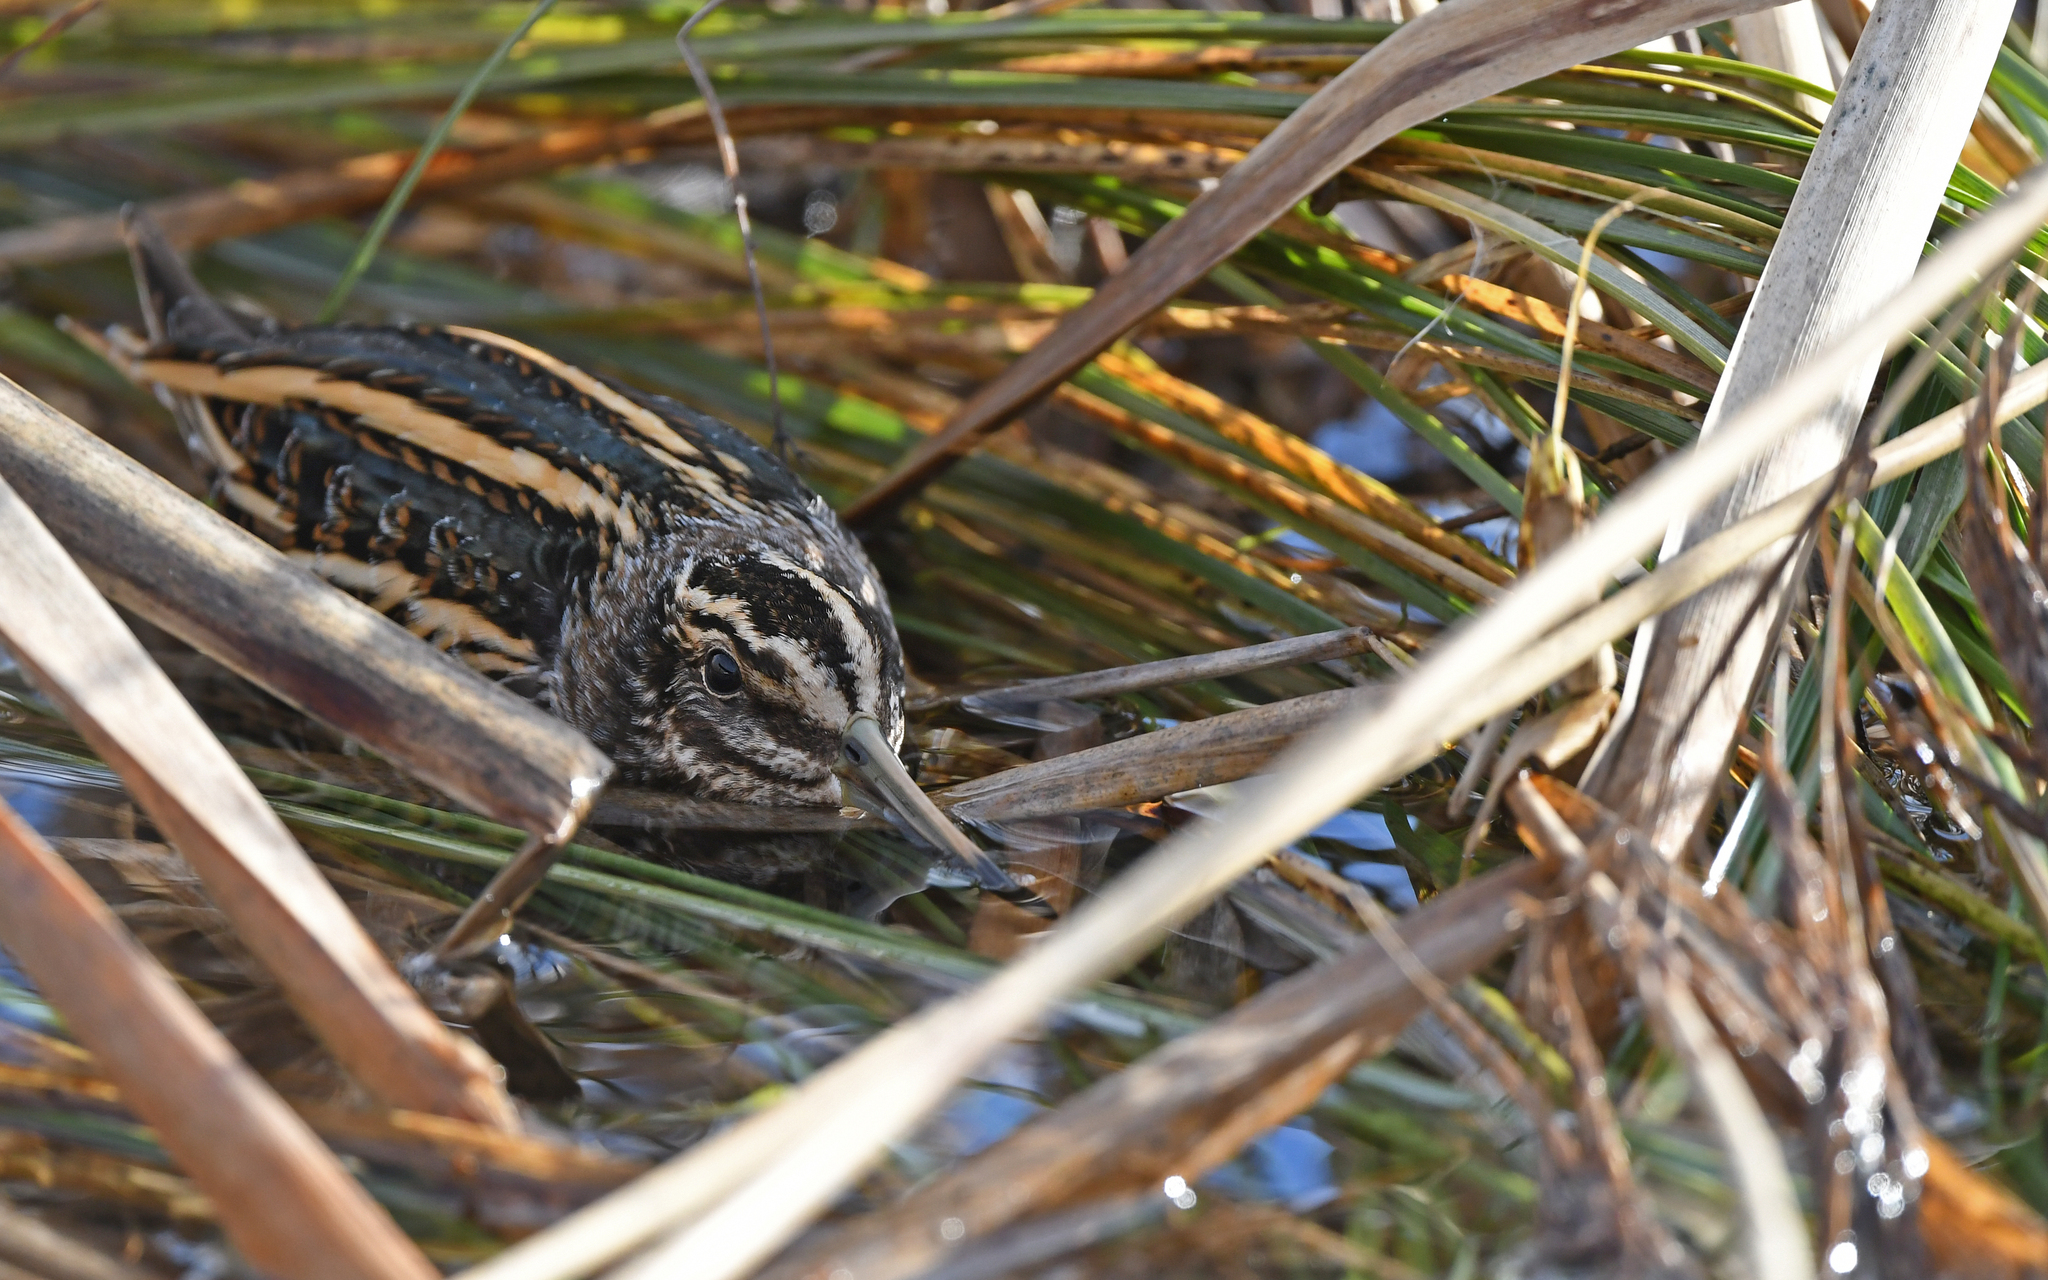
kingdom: Animalia
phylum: Chordata
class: Aves
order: Charadriiformes
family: Scolopacidae
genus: Lymnocryptes
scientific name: Lymnocryptes minimus
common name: Jack snipe
